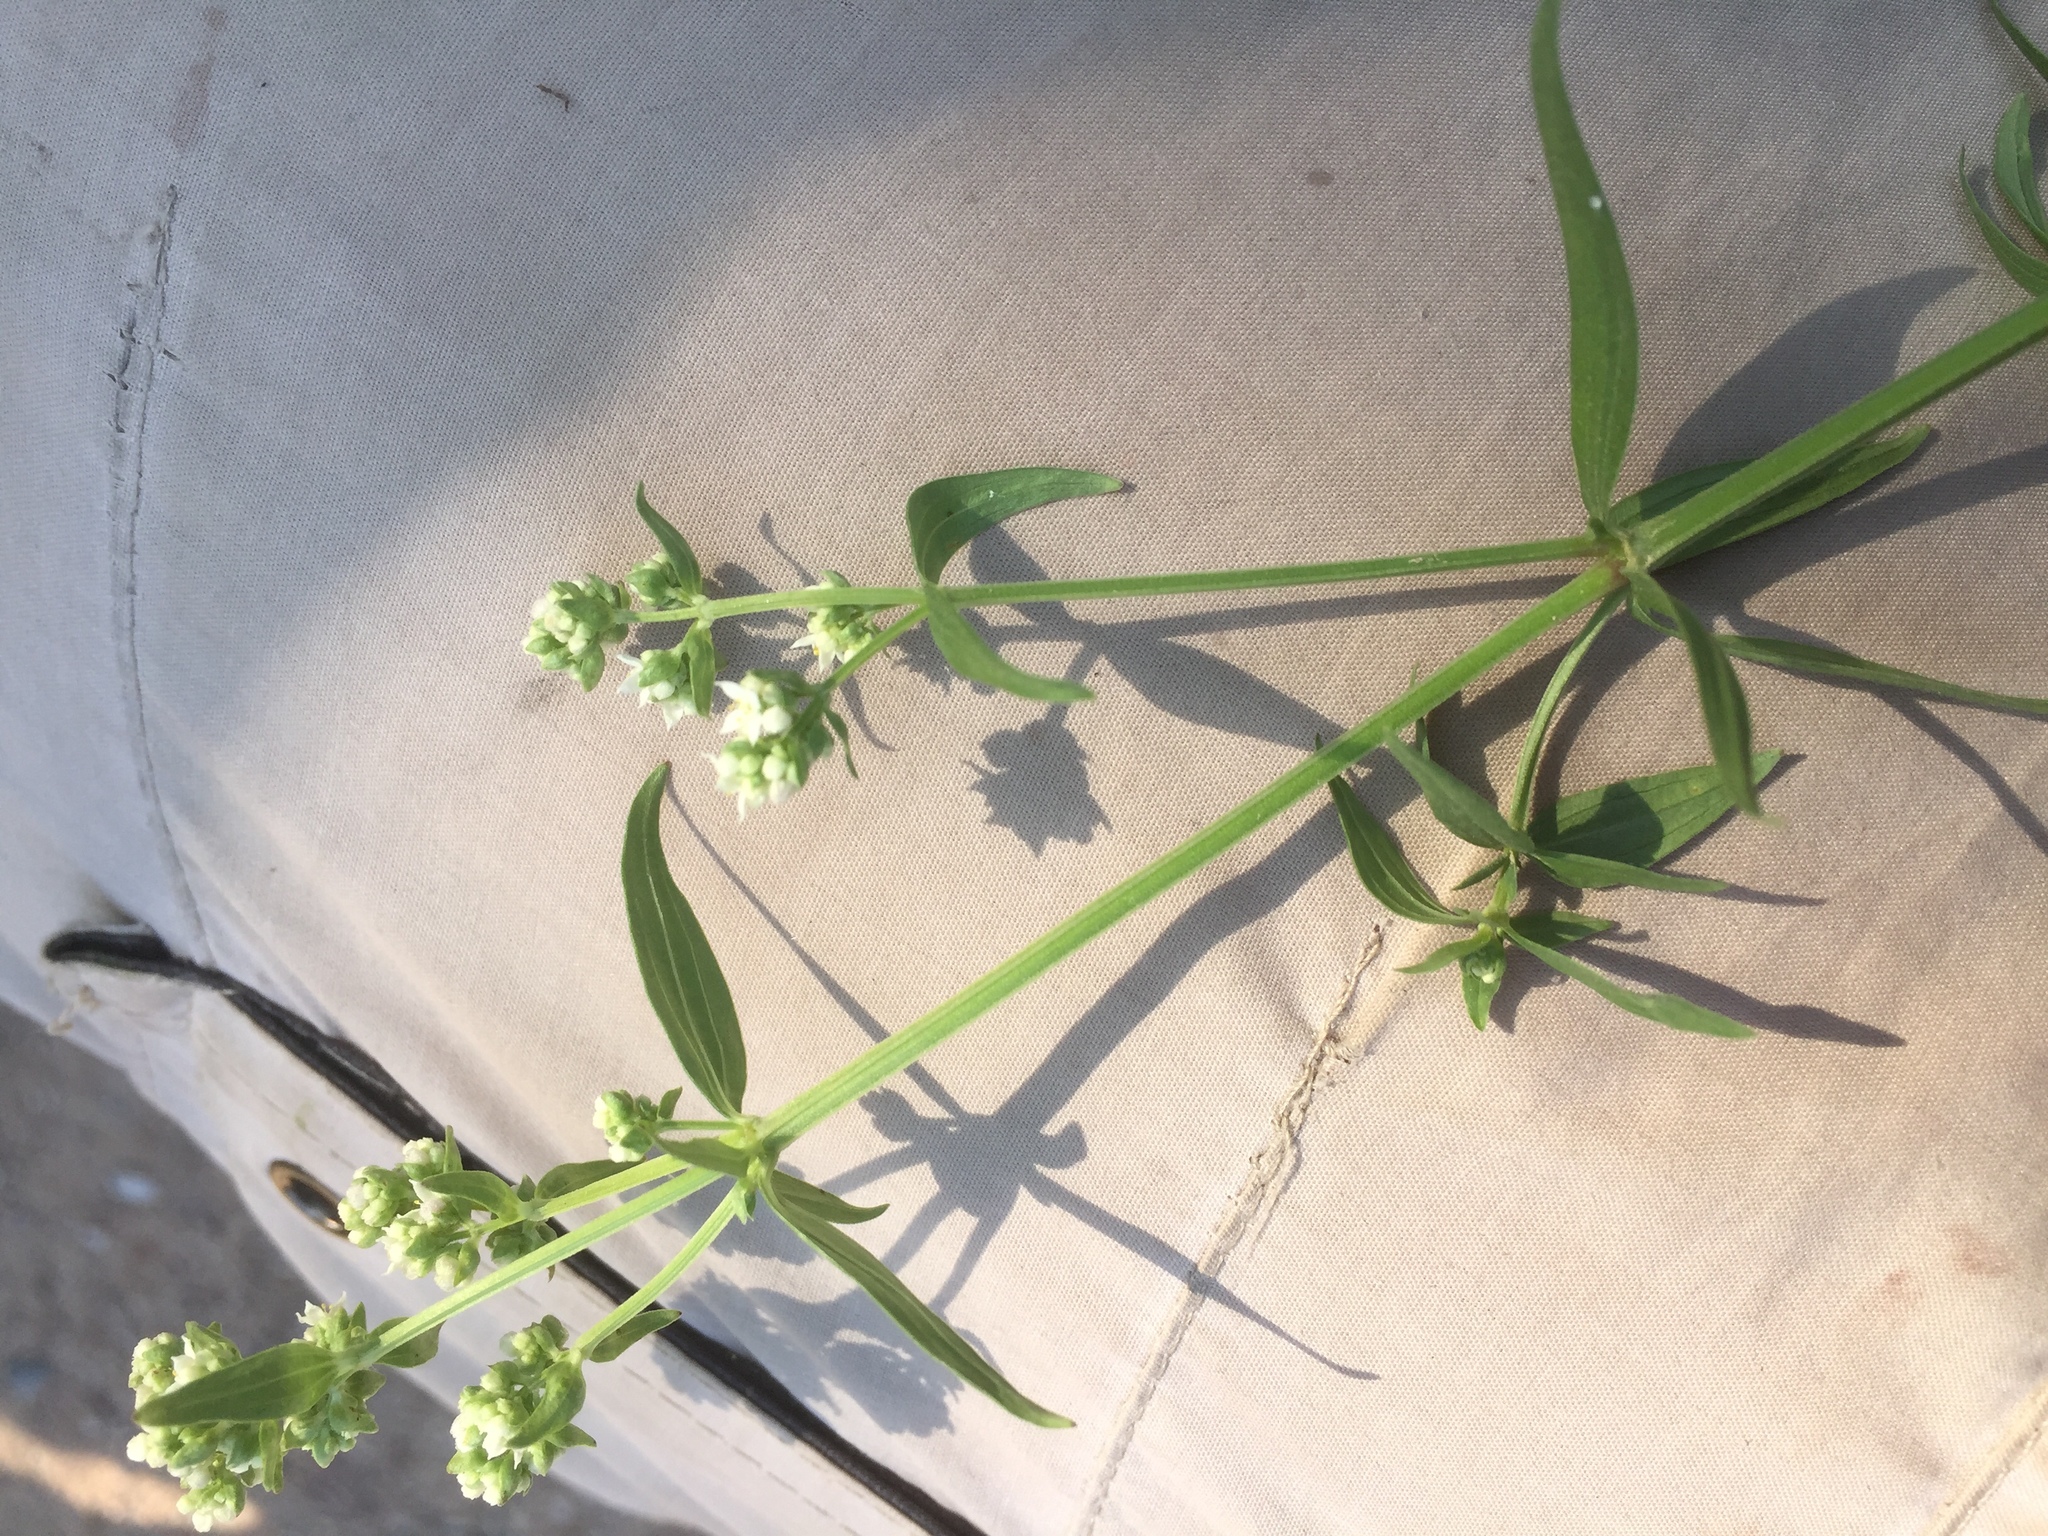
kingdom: Plantae
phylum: Tracheophyta
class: Magnoliopsida
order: Gentianales
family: Rubiaceae
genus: Galium
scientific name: Galium boreale
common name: Northern bedstraw
